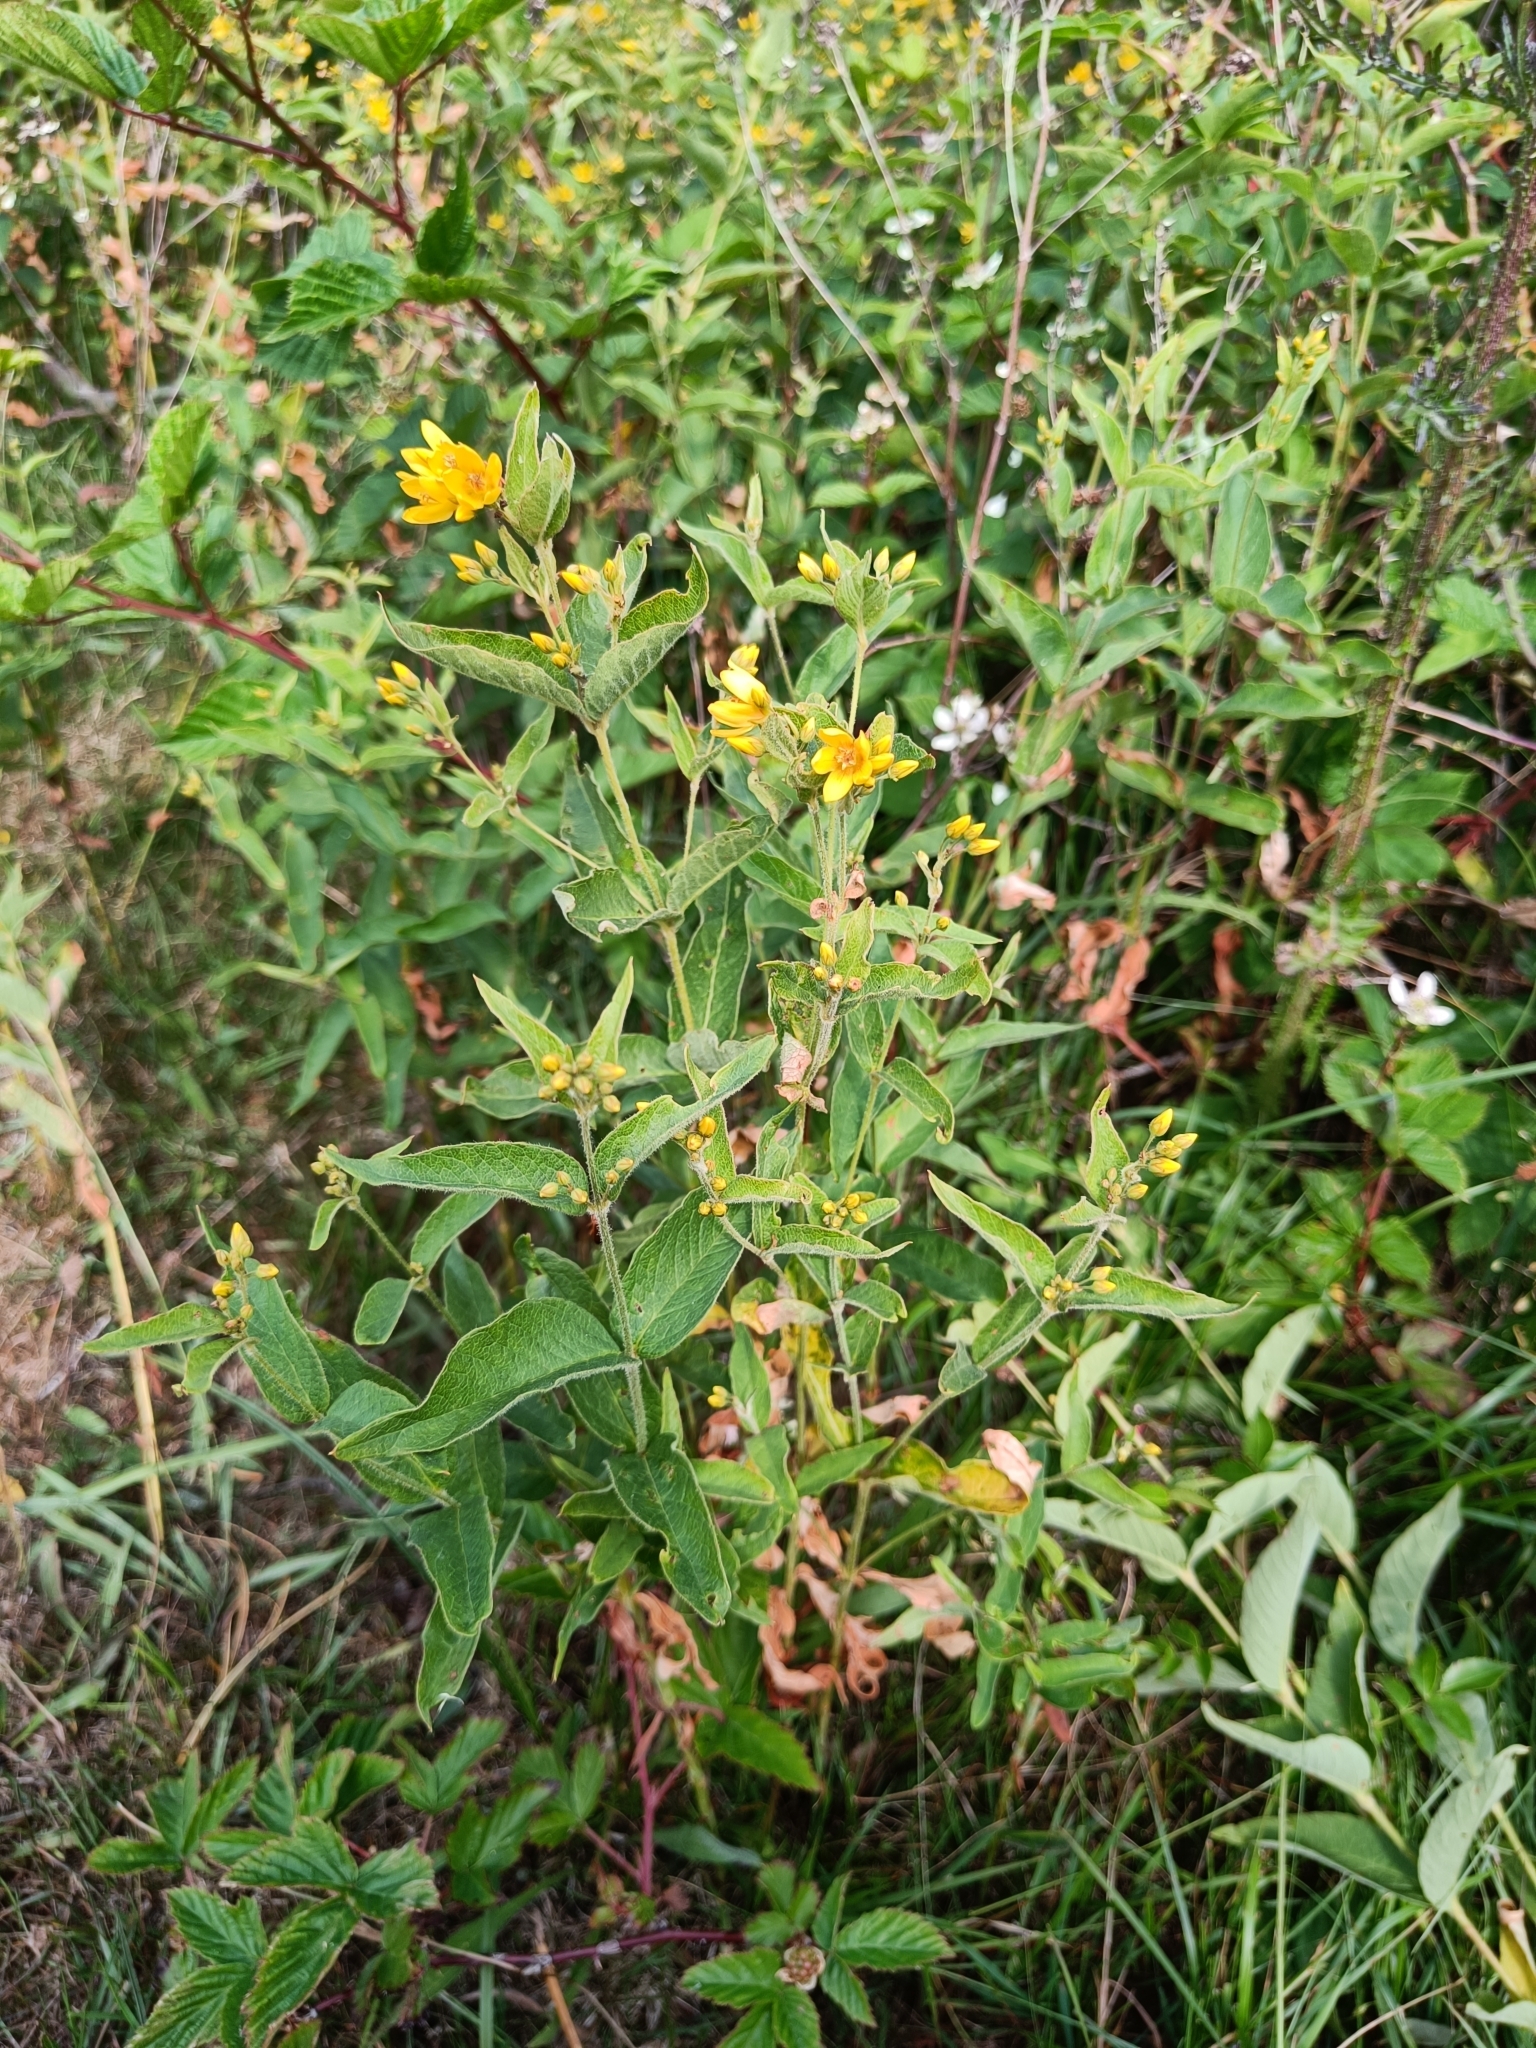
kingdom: Plantae
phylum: Tracheophyta
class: Magnoliopsida
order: Ericales
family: Primulaceae
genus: Lysimachia
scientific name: Lysimachia vulgaris
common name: Yellow loosestrife
